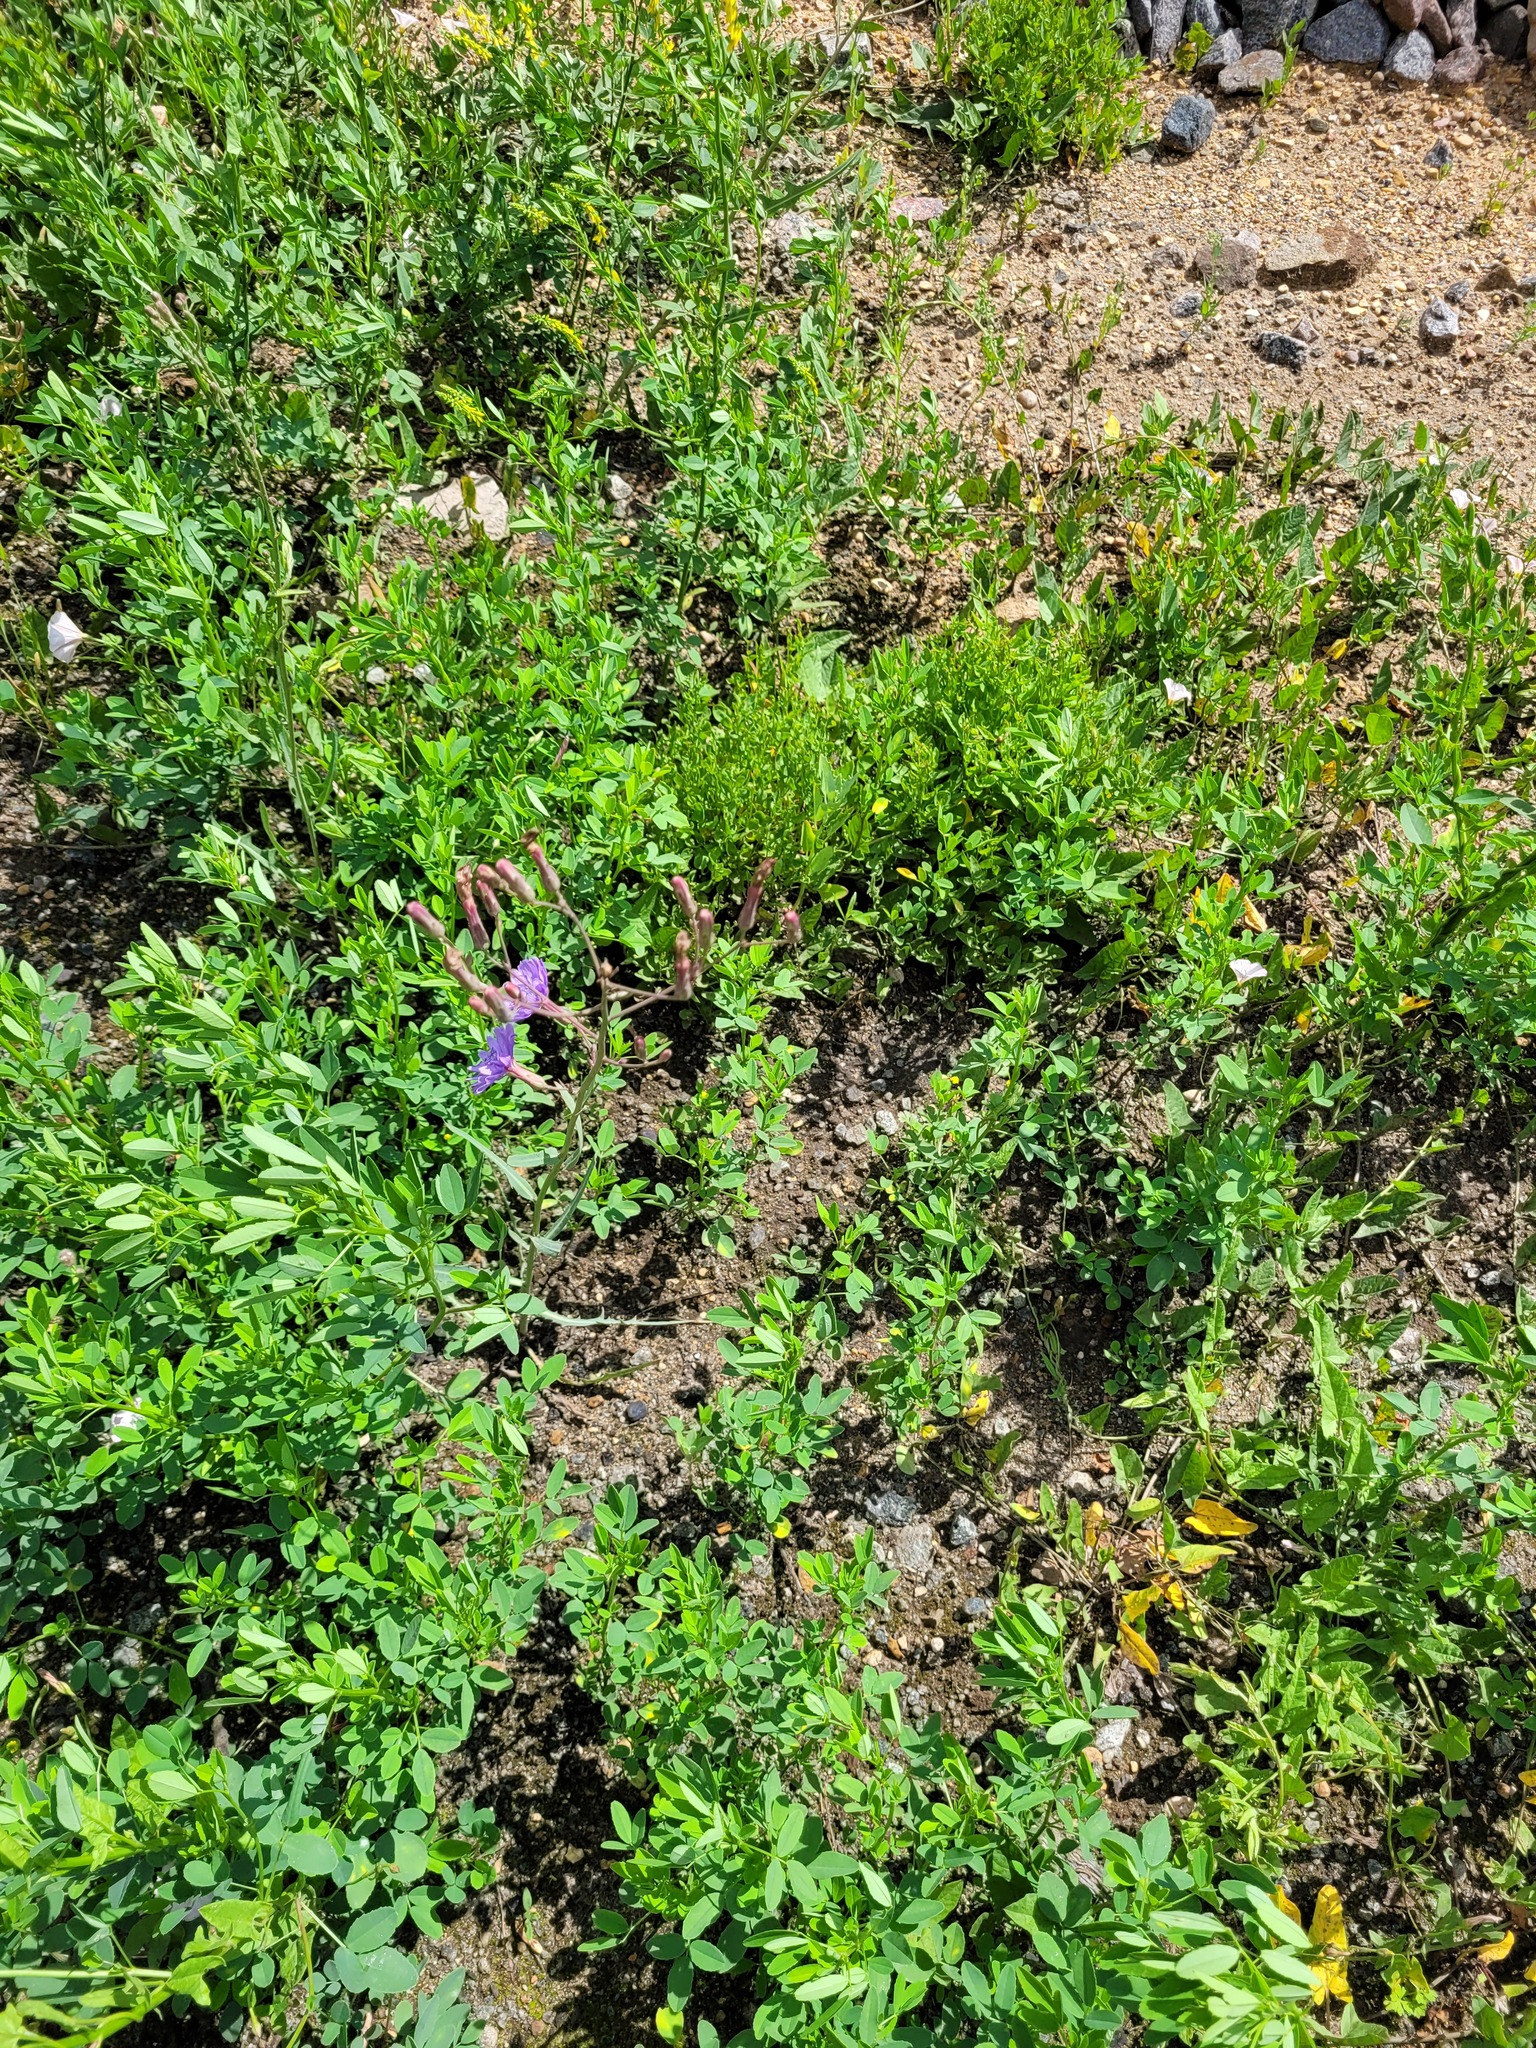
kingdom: Plantae
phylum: Tracheophyta
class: Magnoliopsida
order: Asterales
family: Asteraceae
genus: Lactuca
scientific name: Lactuca tatarica
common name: Blue lettuce
